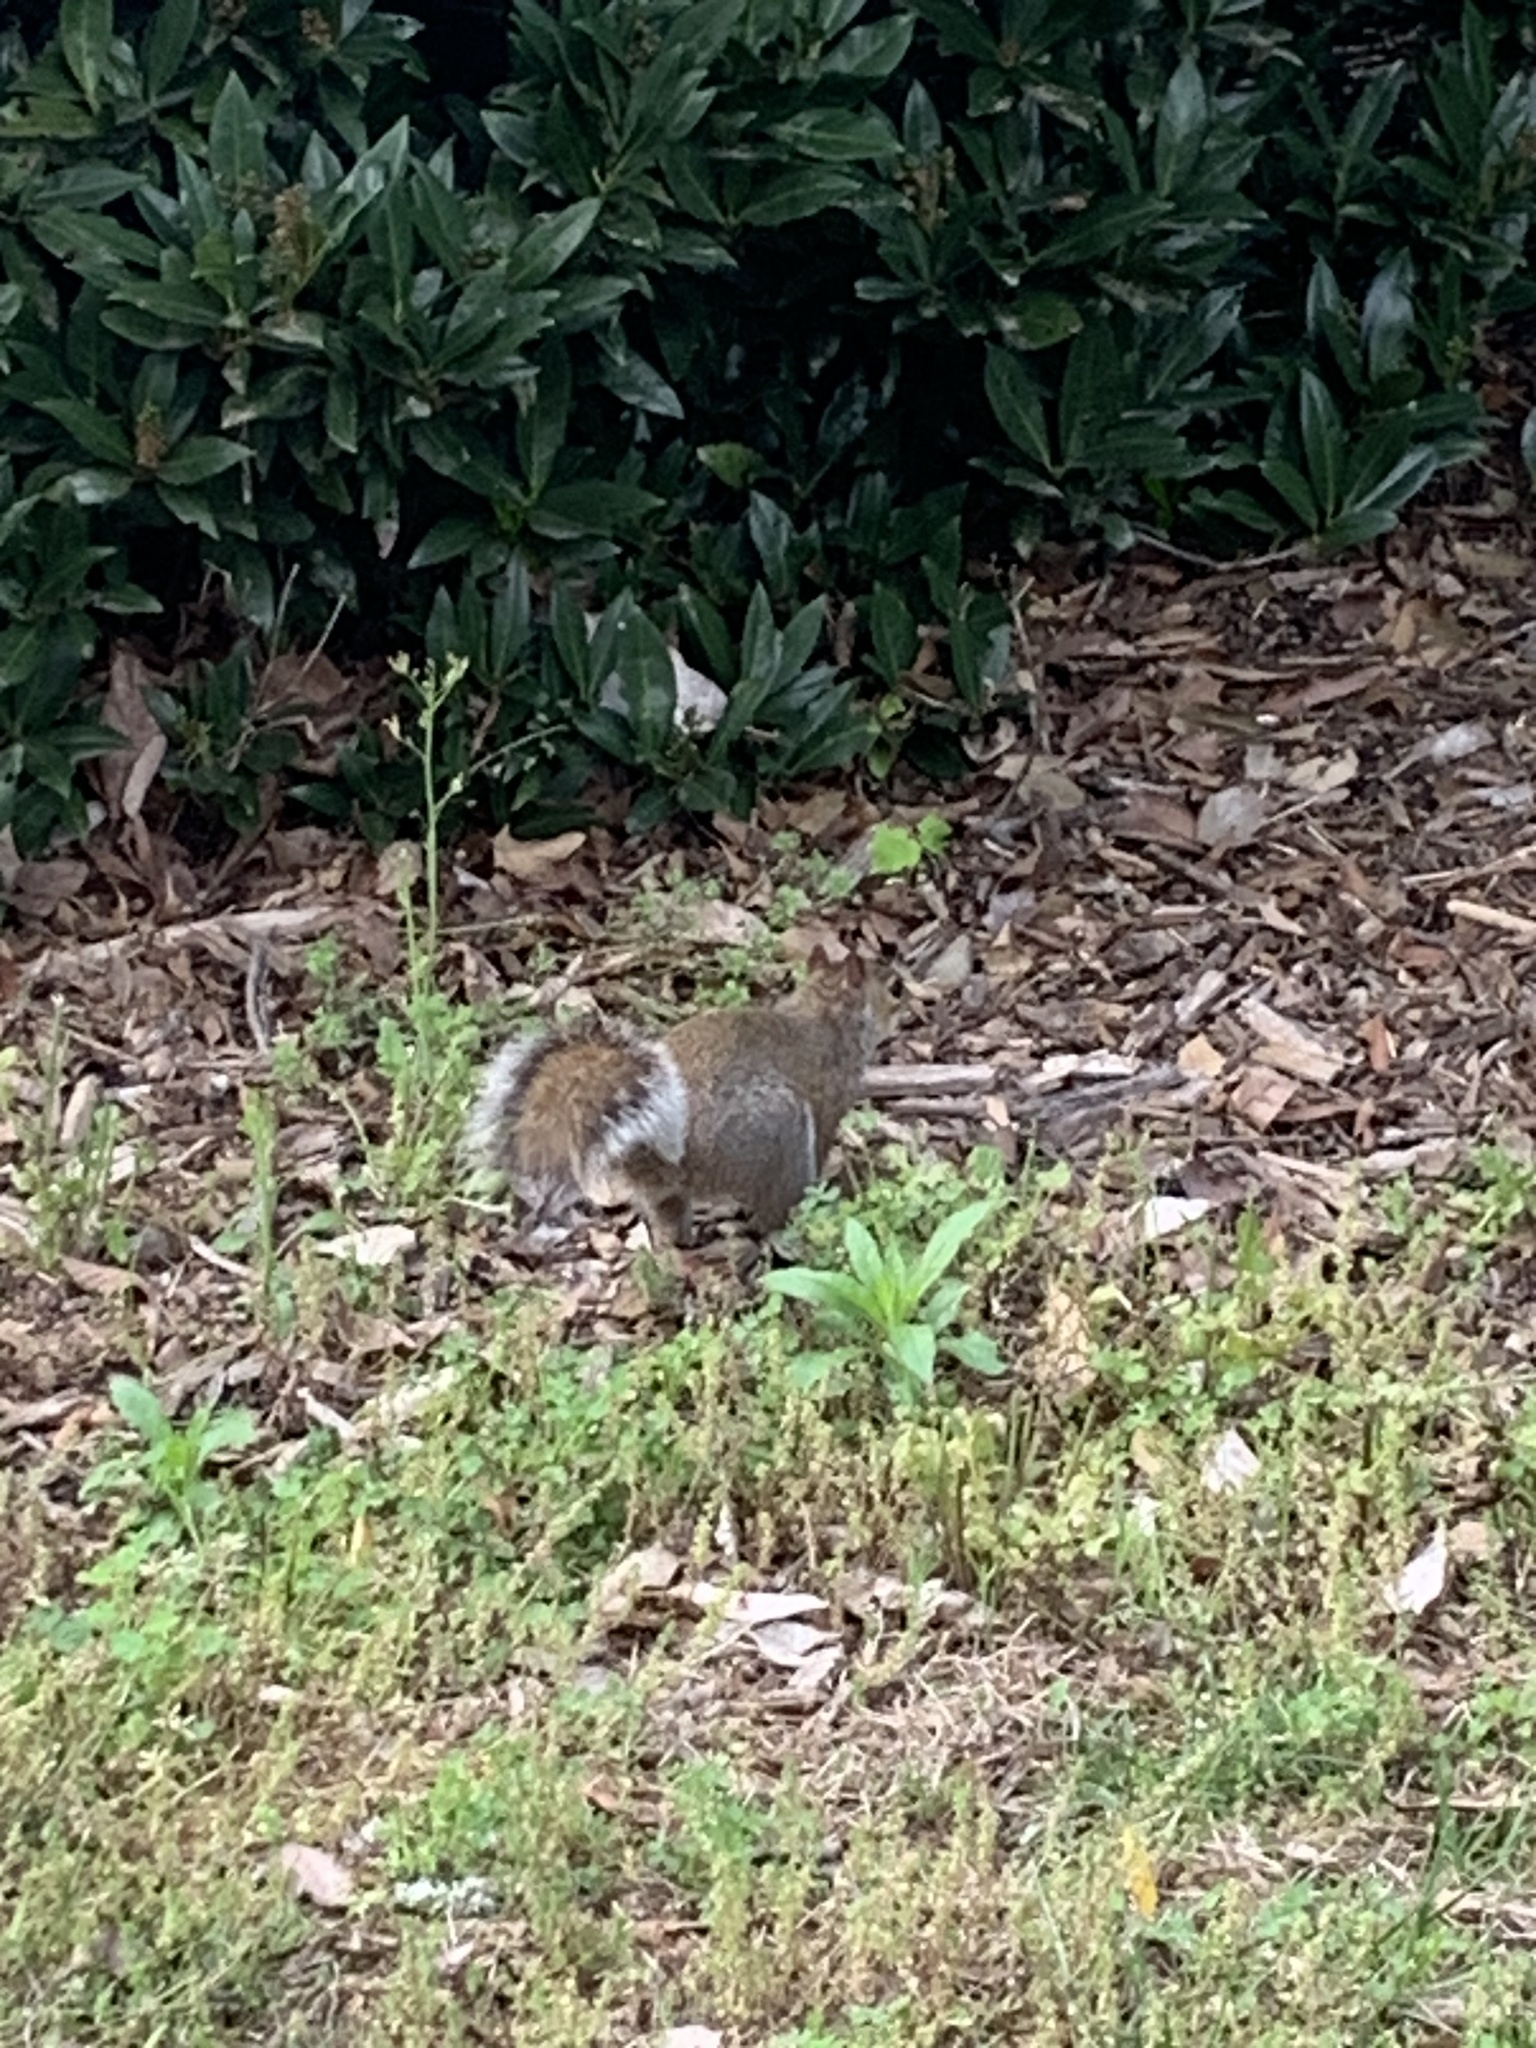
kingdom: Animalia
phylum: Chordata
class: Mammalia
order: Rodentia
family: Sciuridae
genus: Sciurus
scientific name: Sciurus carolinensis
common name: Eastern gray squirrel
